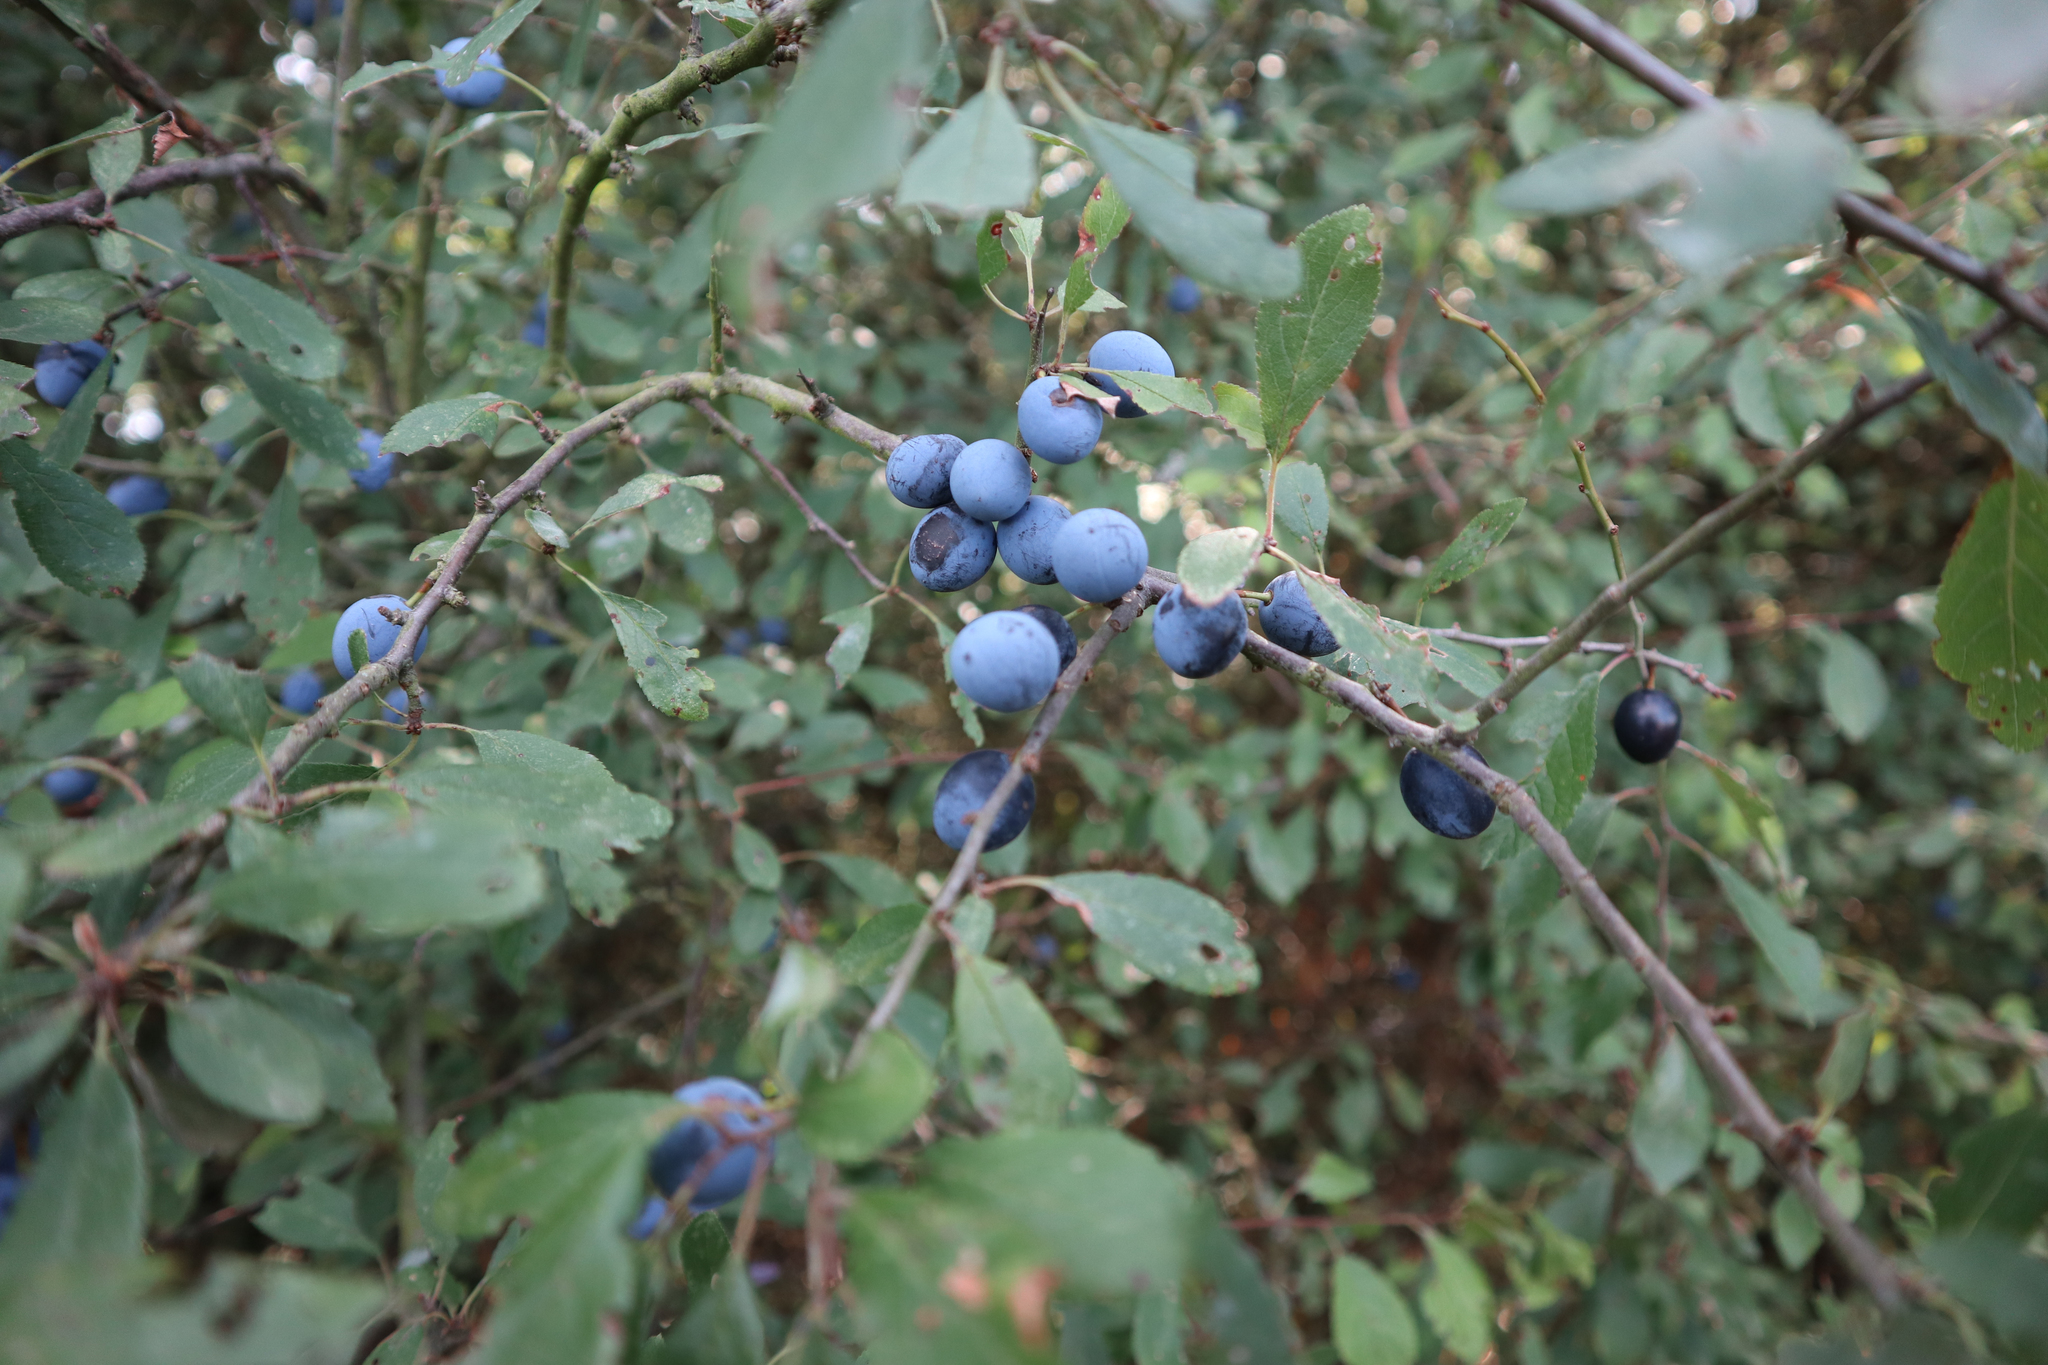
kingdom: Plantae
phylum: Tracheophyta
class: Magnoliopsida
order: Rosales
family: Rosaceae
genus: Prunus
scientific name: Prunus spinosa
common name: Blackthorn
